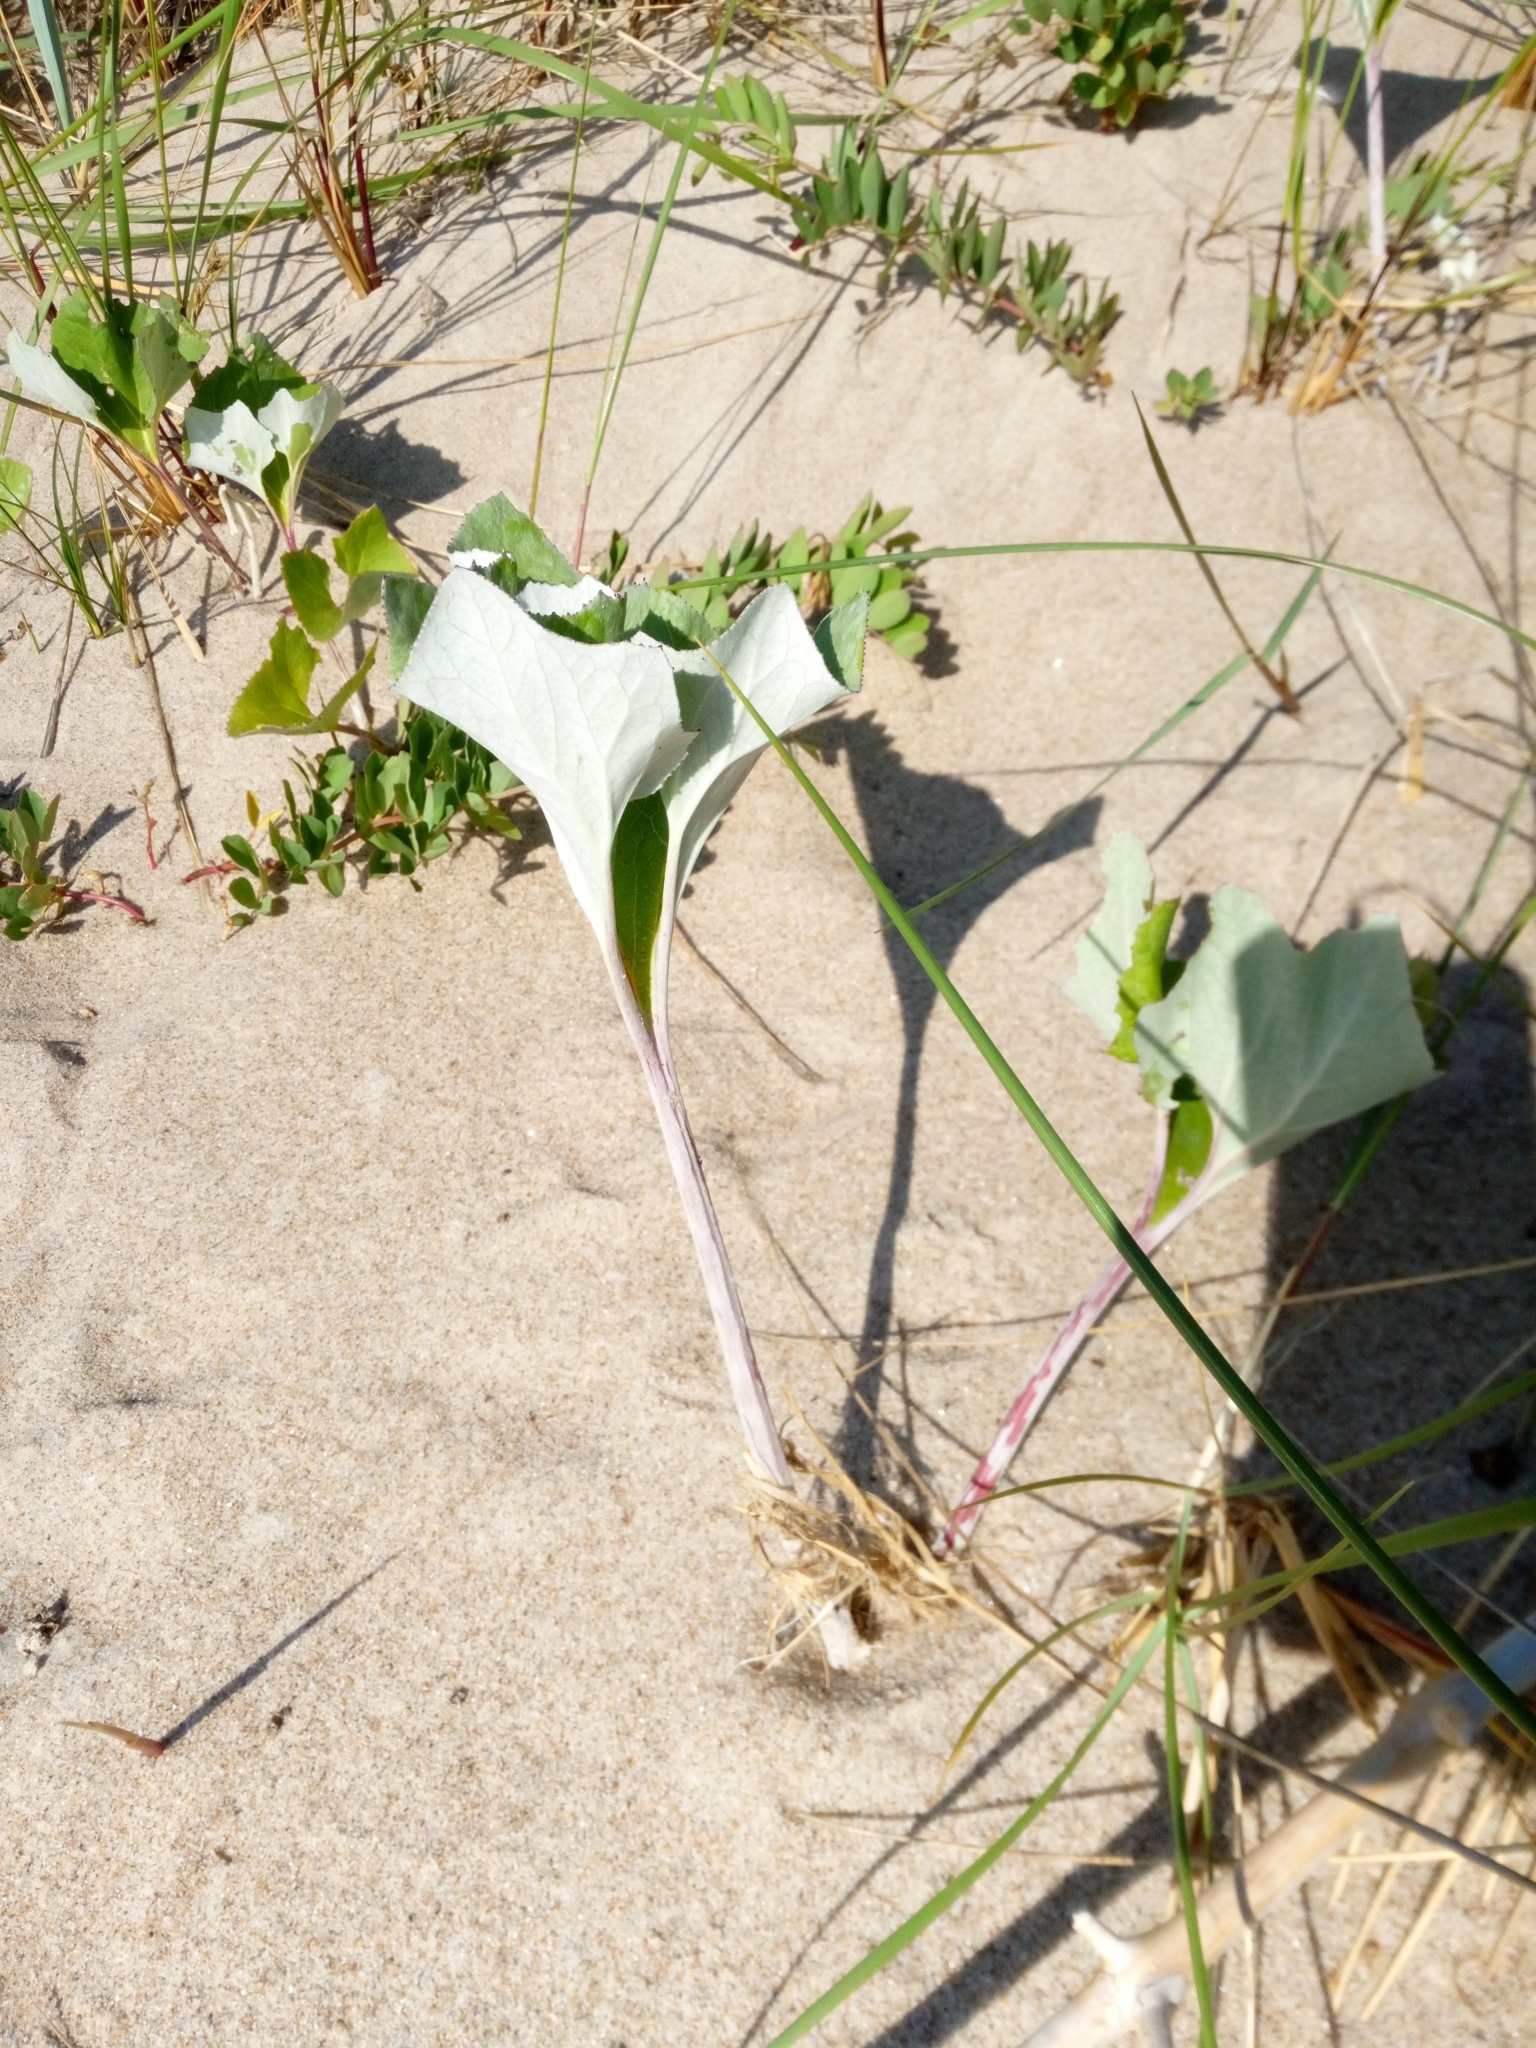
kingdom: Plantae
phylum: Tracheophyta
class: Magnoliopsida
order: Asterales
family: Asteraceae
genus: Petasites
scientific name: Petasites spurius
